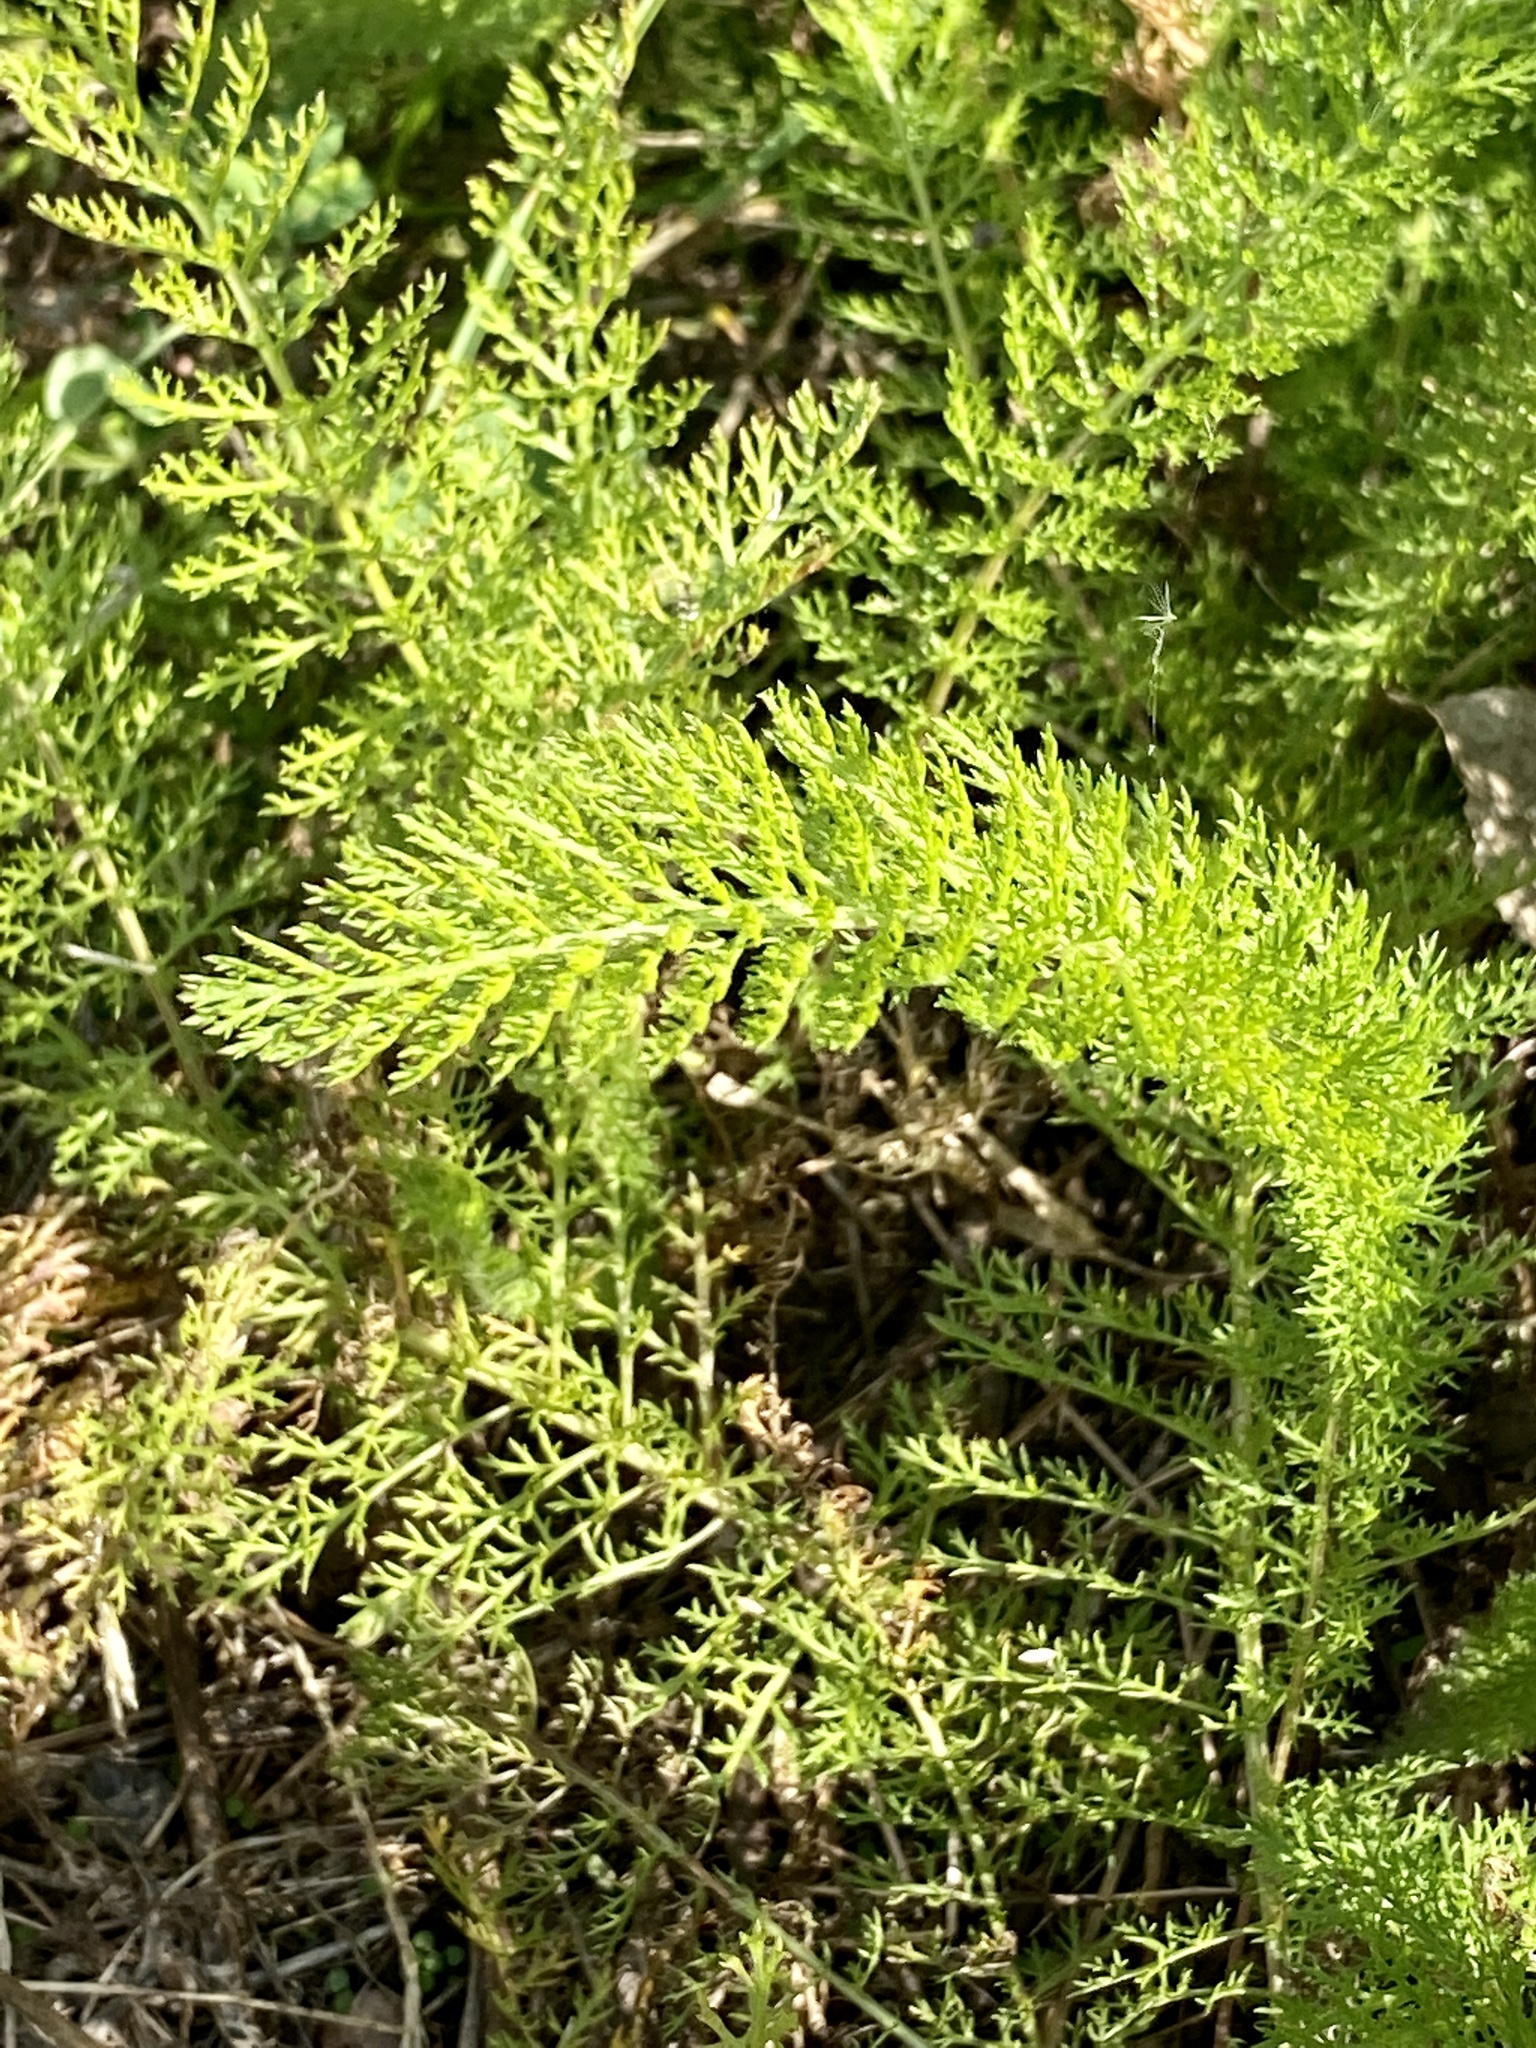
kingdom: Plantae
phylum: Tracheophyta
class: Magnoliopsida
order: Asterales
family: Asteraceae
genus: Achillea
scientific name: Achillea millefolium
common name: Yarrow
